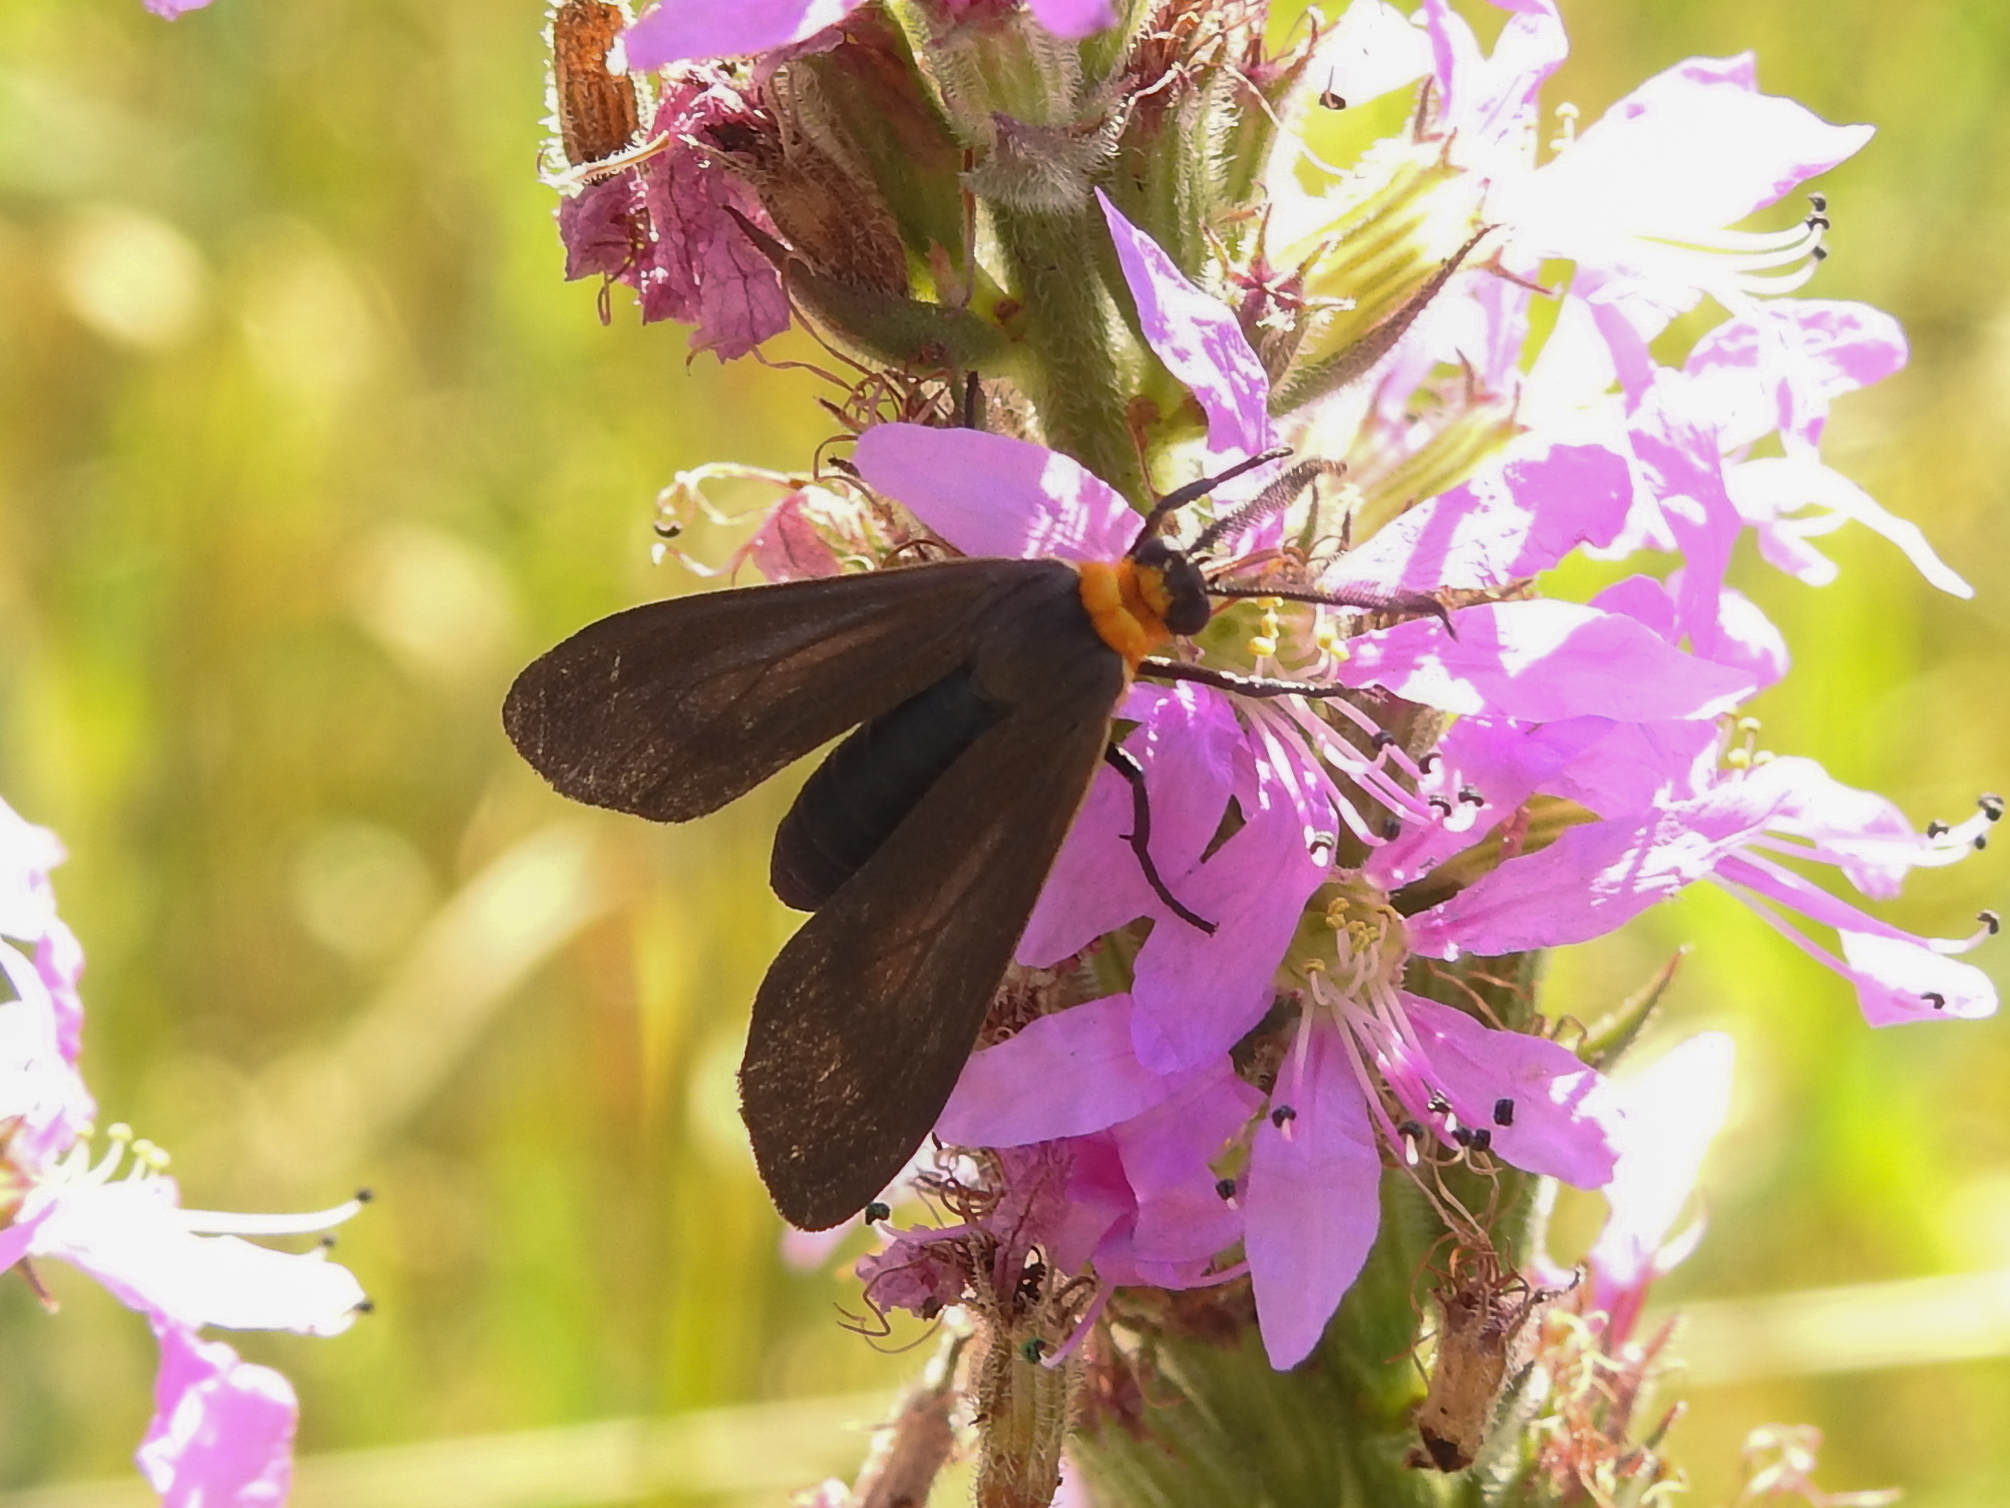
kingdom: Animalia
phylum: Arthropoda
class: Insecta
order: Lepidoptera
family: Erebidae
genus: Cisseps
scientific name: Cisseps fulvicollis
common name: Yellow-collared scape moth
